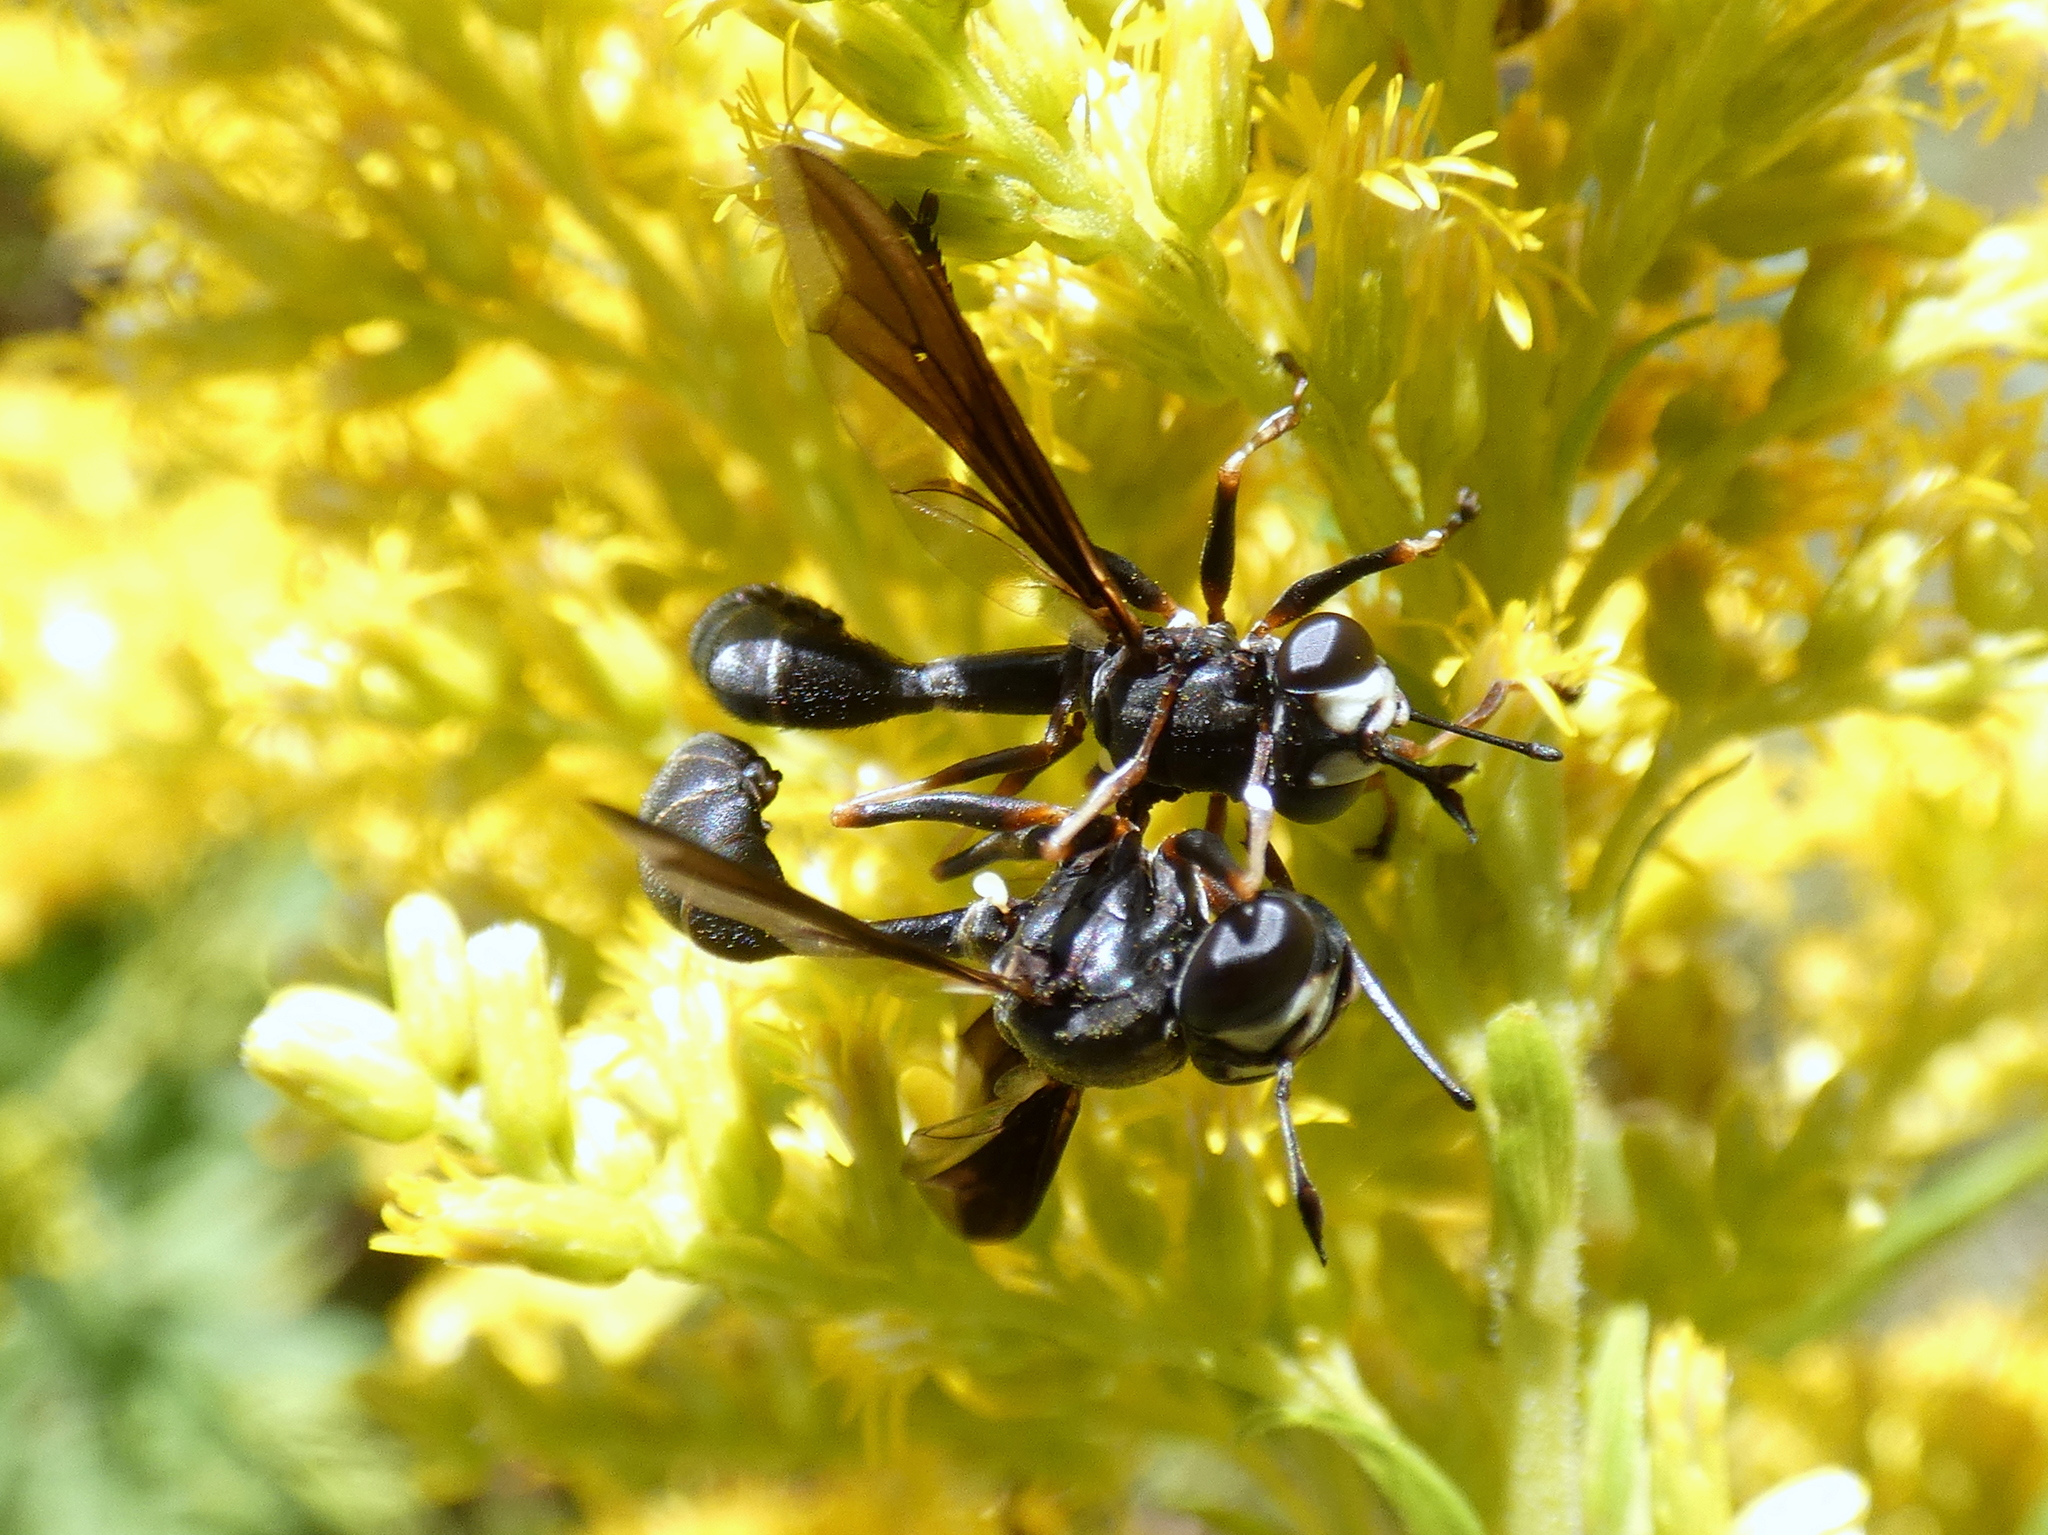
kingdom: Animalia
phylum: Arthropoda
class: Insecta
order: Diptera
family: Conopidae
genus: Physocephala
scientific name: Physocephala tibialis
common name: Common eastern physocephala
